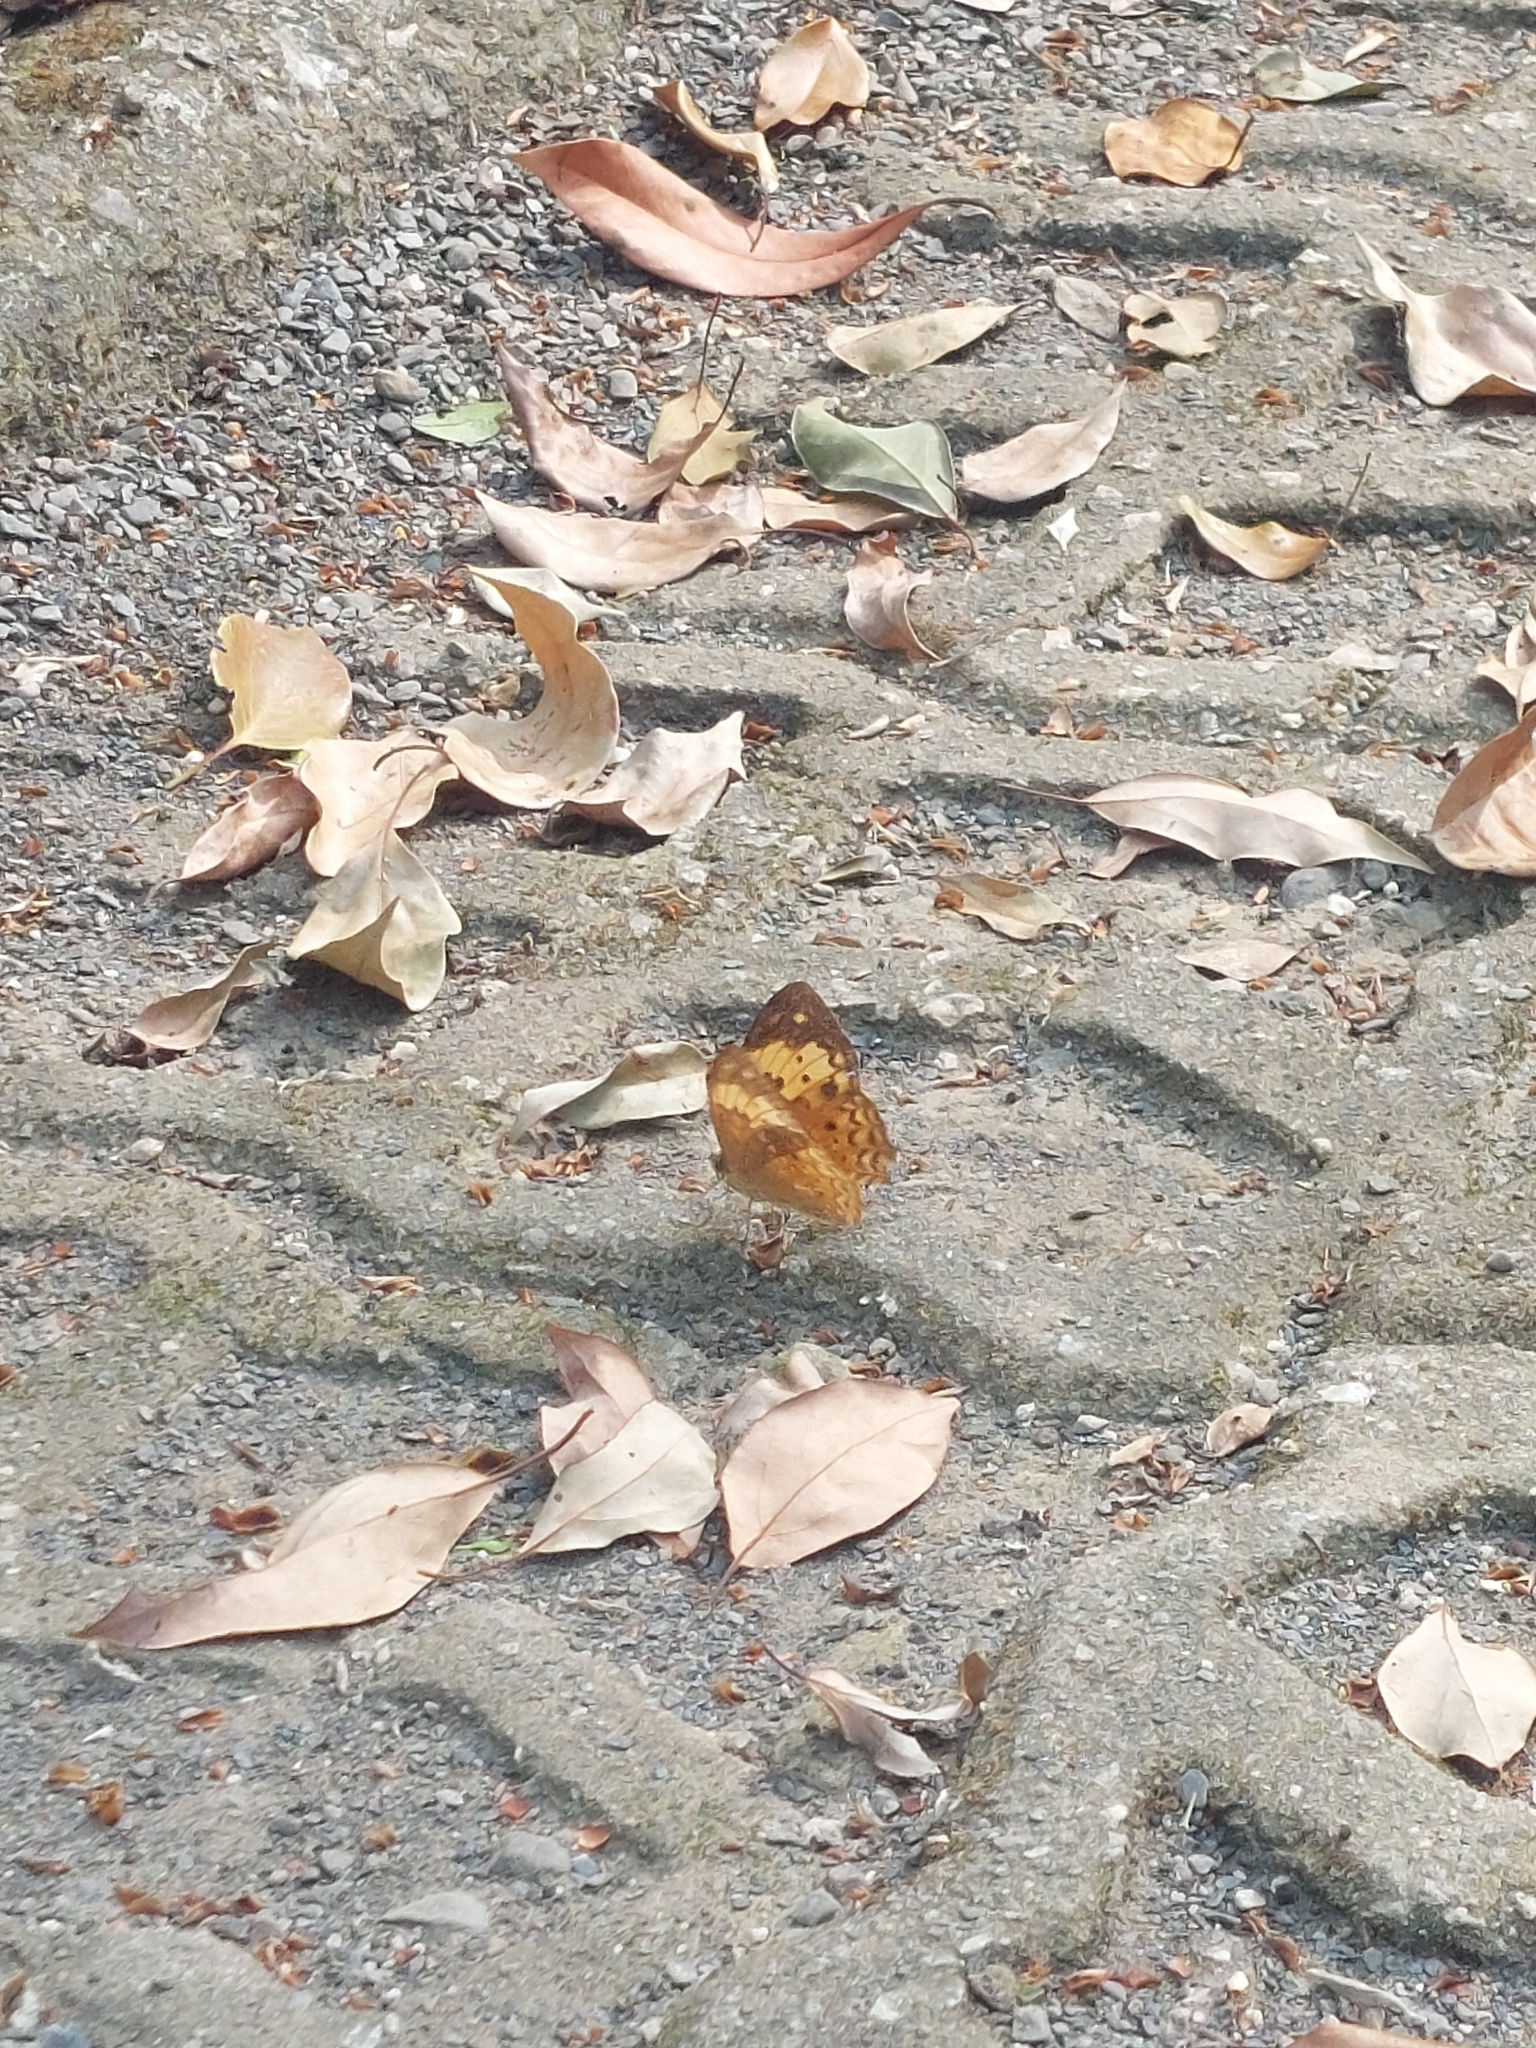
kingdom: Animalia
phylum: Arthropoda
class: Insecta
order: Lepidoptera
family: Nymphalidae
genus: Cupha
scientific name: Cupha erymanthis
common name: Rustic
